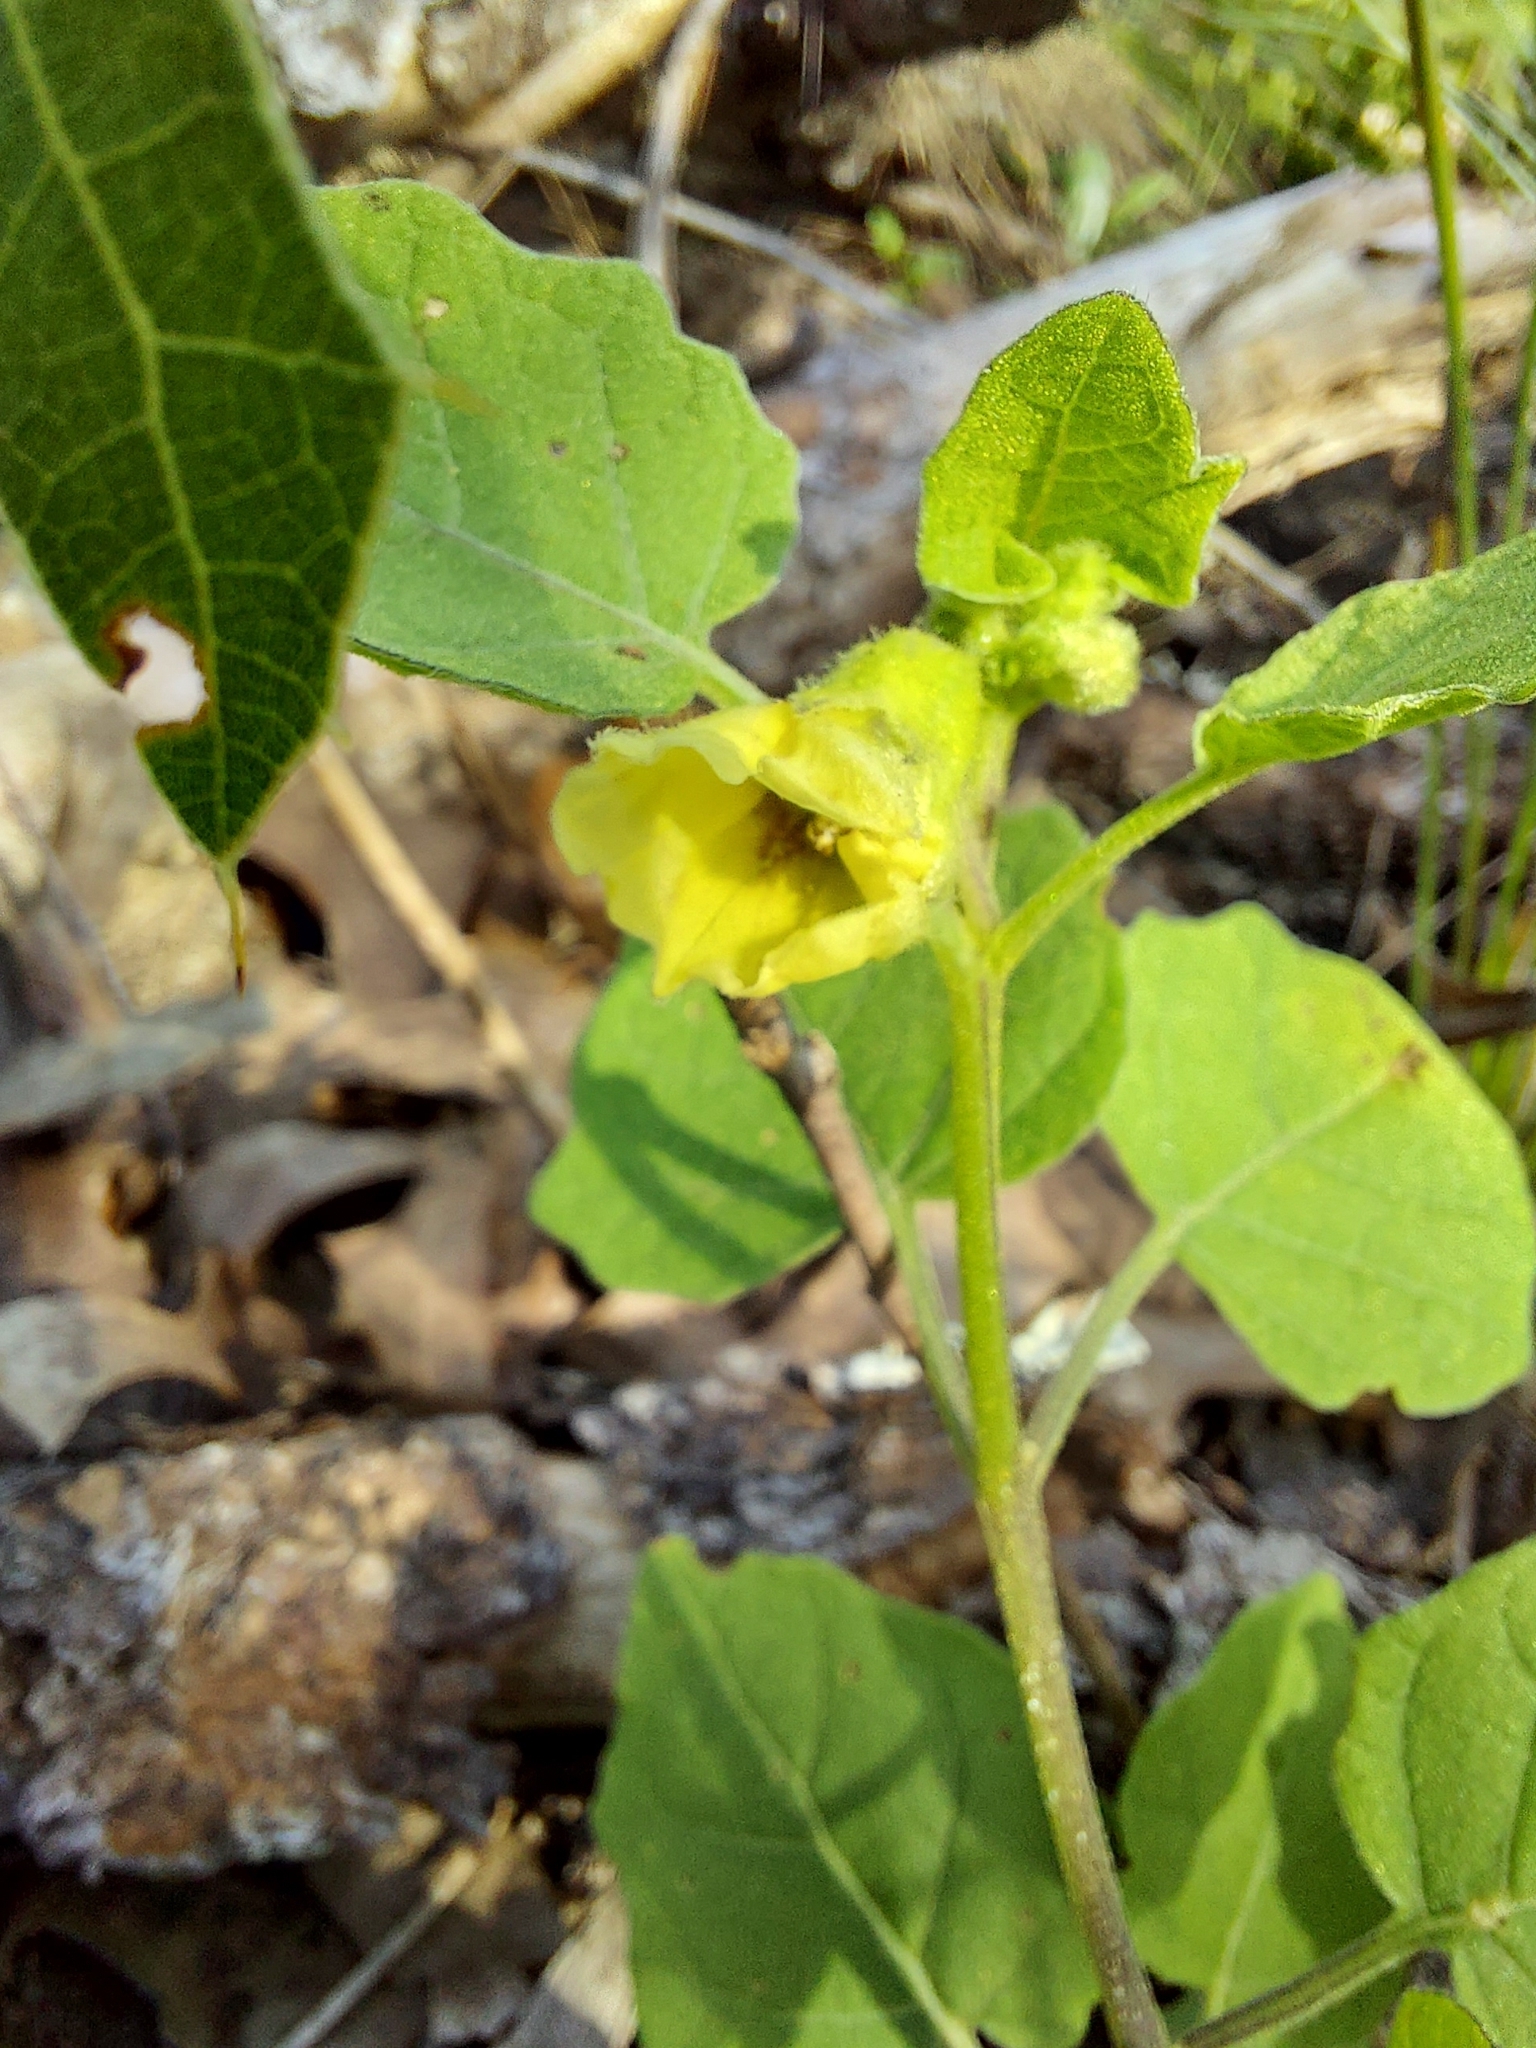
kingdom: Plantae
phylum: Tracheophyta
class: Magnoliopsida
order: Solanales
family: Solanaceae
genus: Physalis
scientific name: Physalis arenicola
